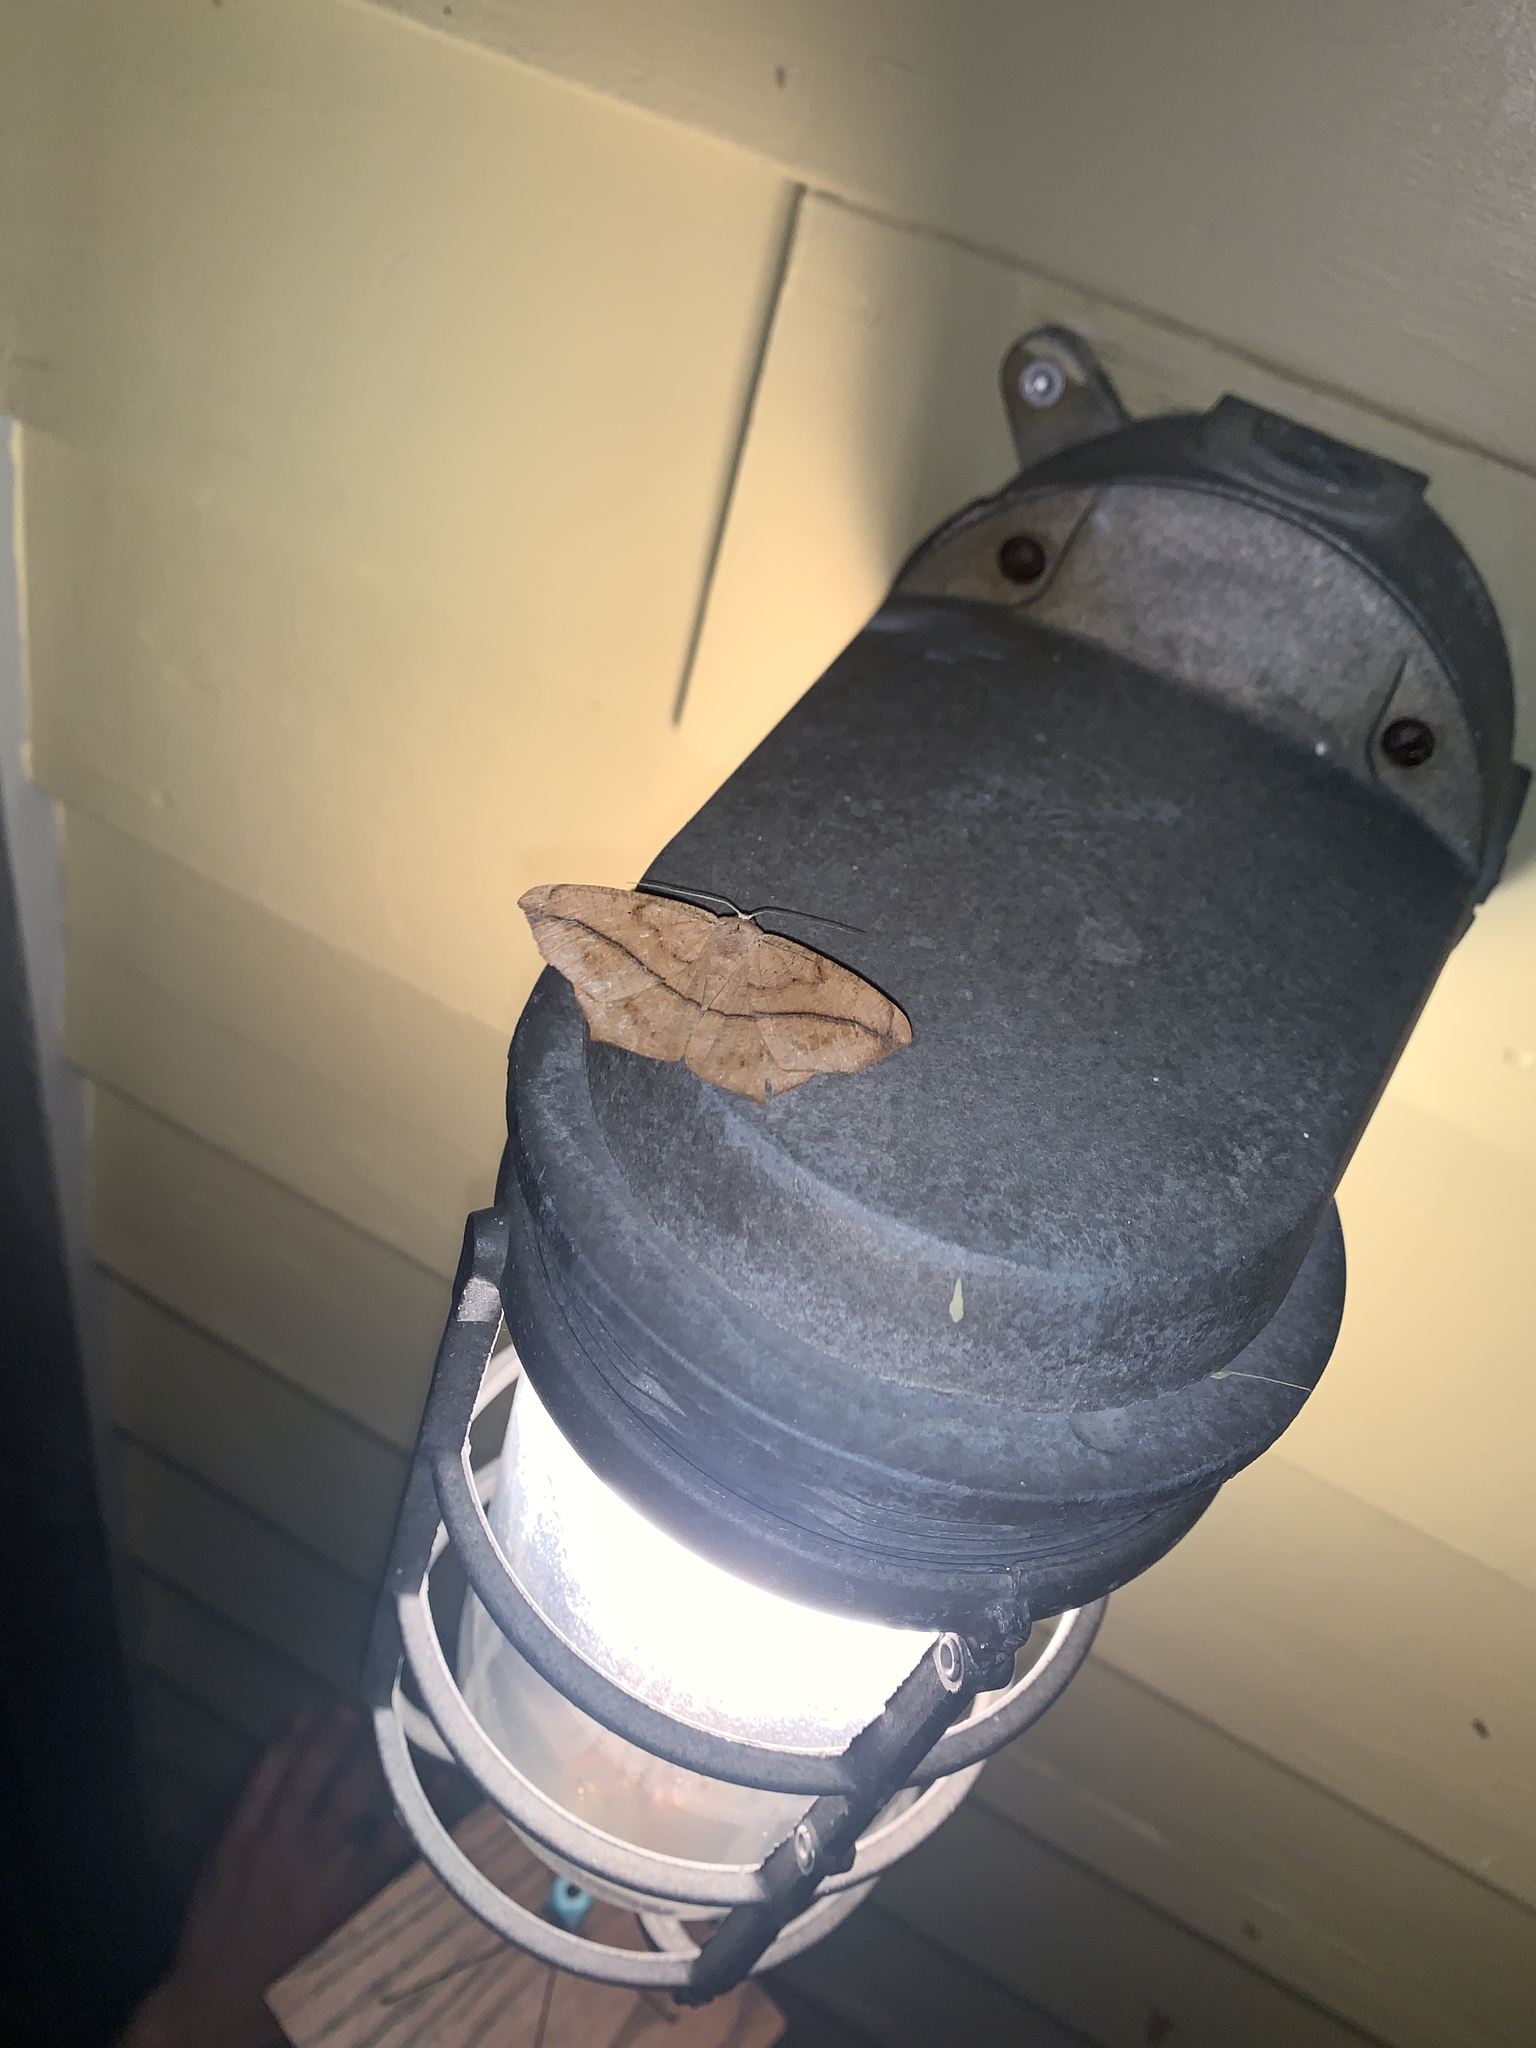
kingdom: Animalia
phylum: Arthropoda
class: Insecta
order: Lepidoptera
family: Geometridae
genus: Prochoerodes
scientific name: Prochoerodes lineola
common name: Large maple spanworm
